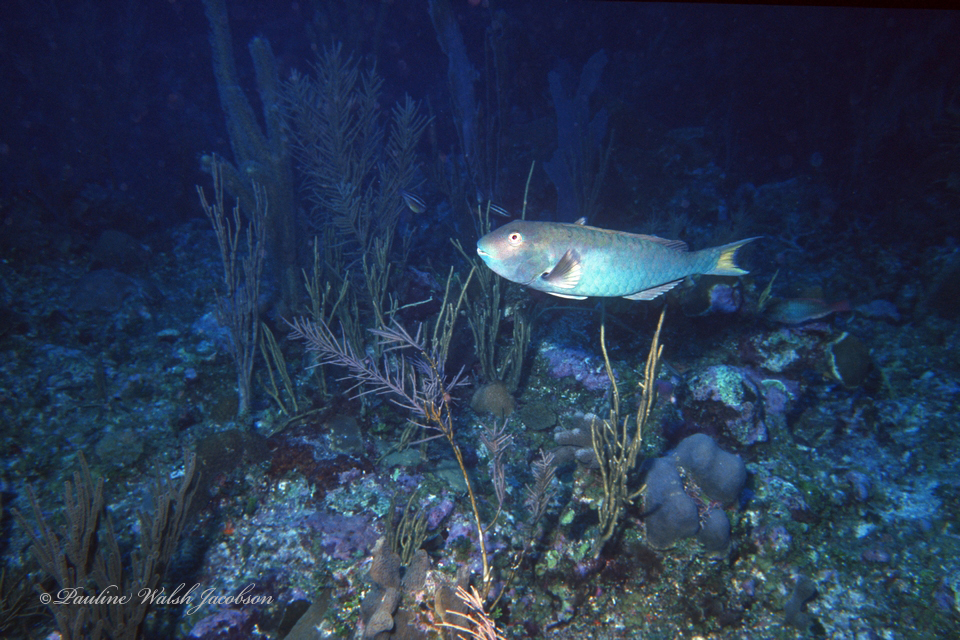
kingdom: Animalia
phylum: Chordata
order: Perciformes
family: Scaridae
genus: Sparisoma
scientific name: Sparisoma rubripinne
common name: Redfin parrotfish
